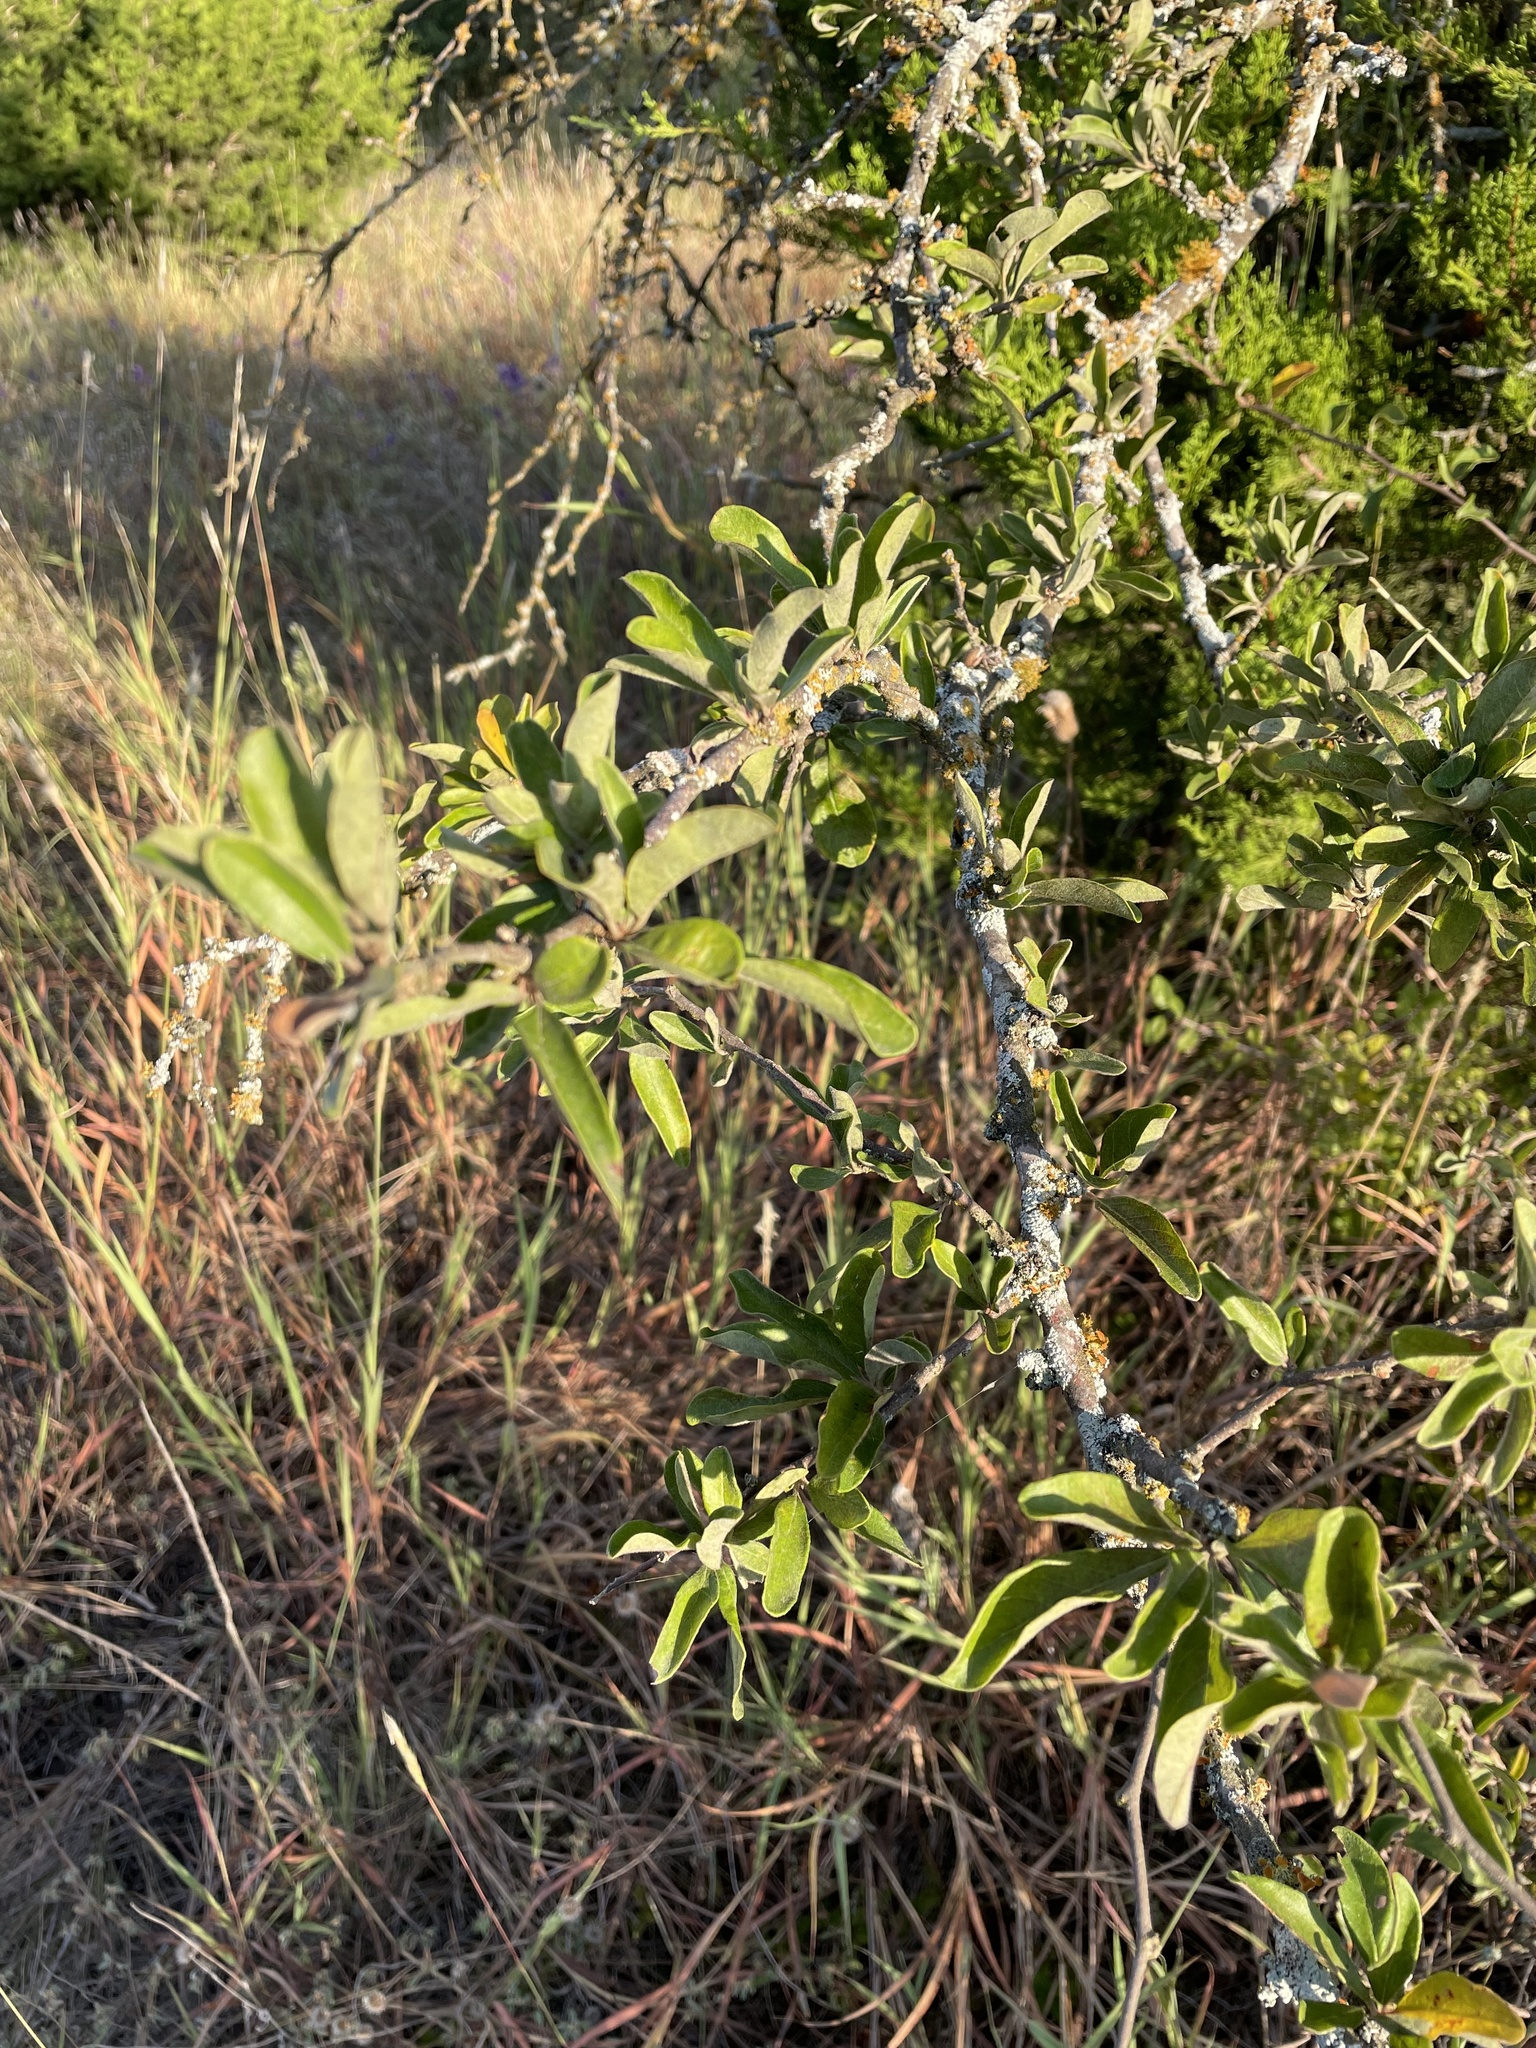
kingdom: Plantae
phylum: Tracheophyta
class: Magnoliopsida
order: Ericales
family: Sapotaceae
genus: Sideroxylon
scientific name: Sideroxylon lanuginosum
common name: Chittamwood
